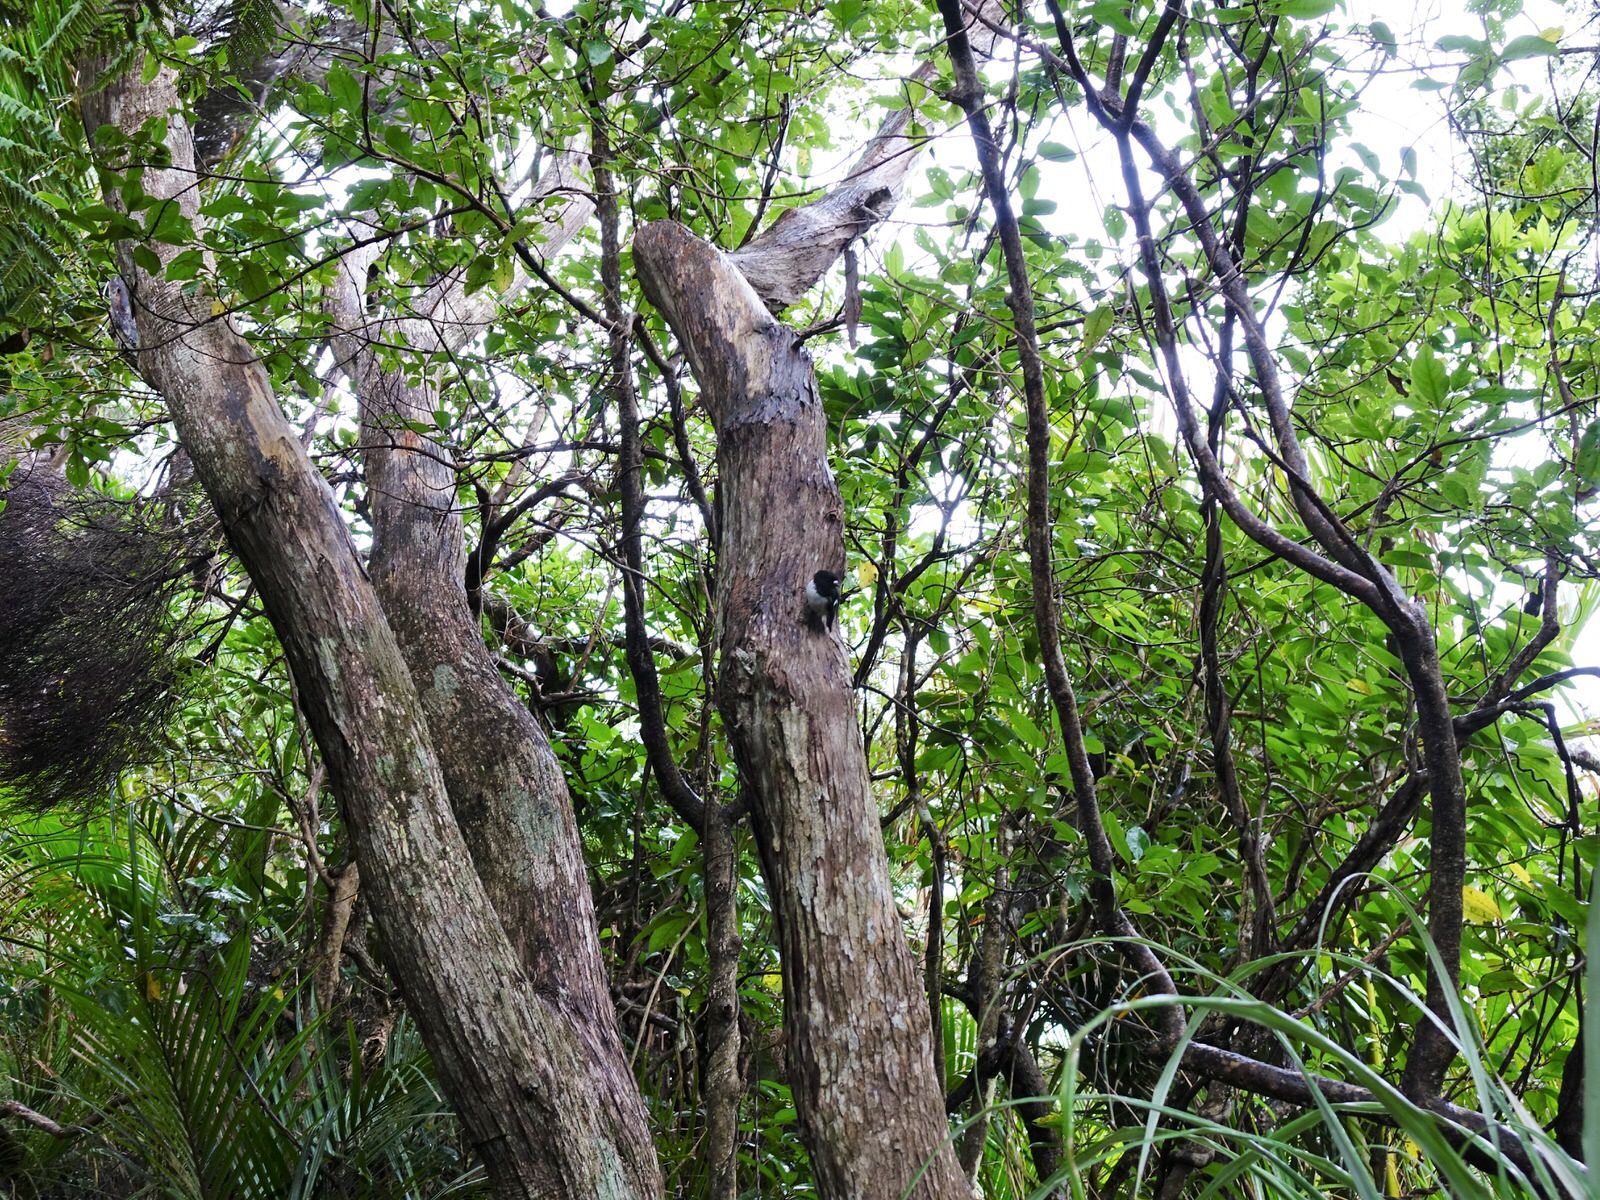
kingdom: Animalia
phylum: Chordata
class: Aves
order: Passeriformes
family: Petroicidae
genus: Petroica
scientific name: Petroica macrocephala
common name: Tomtit
